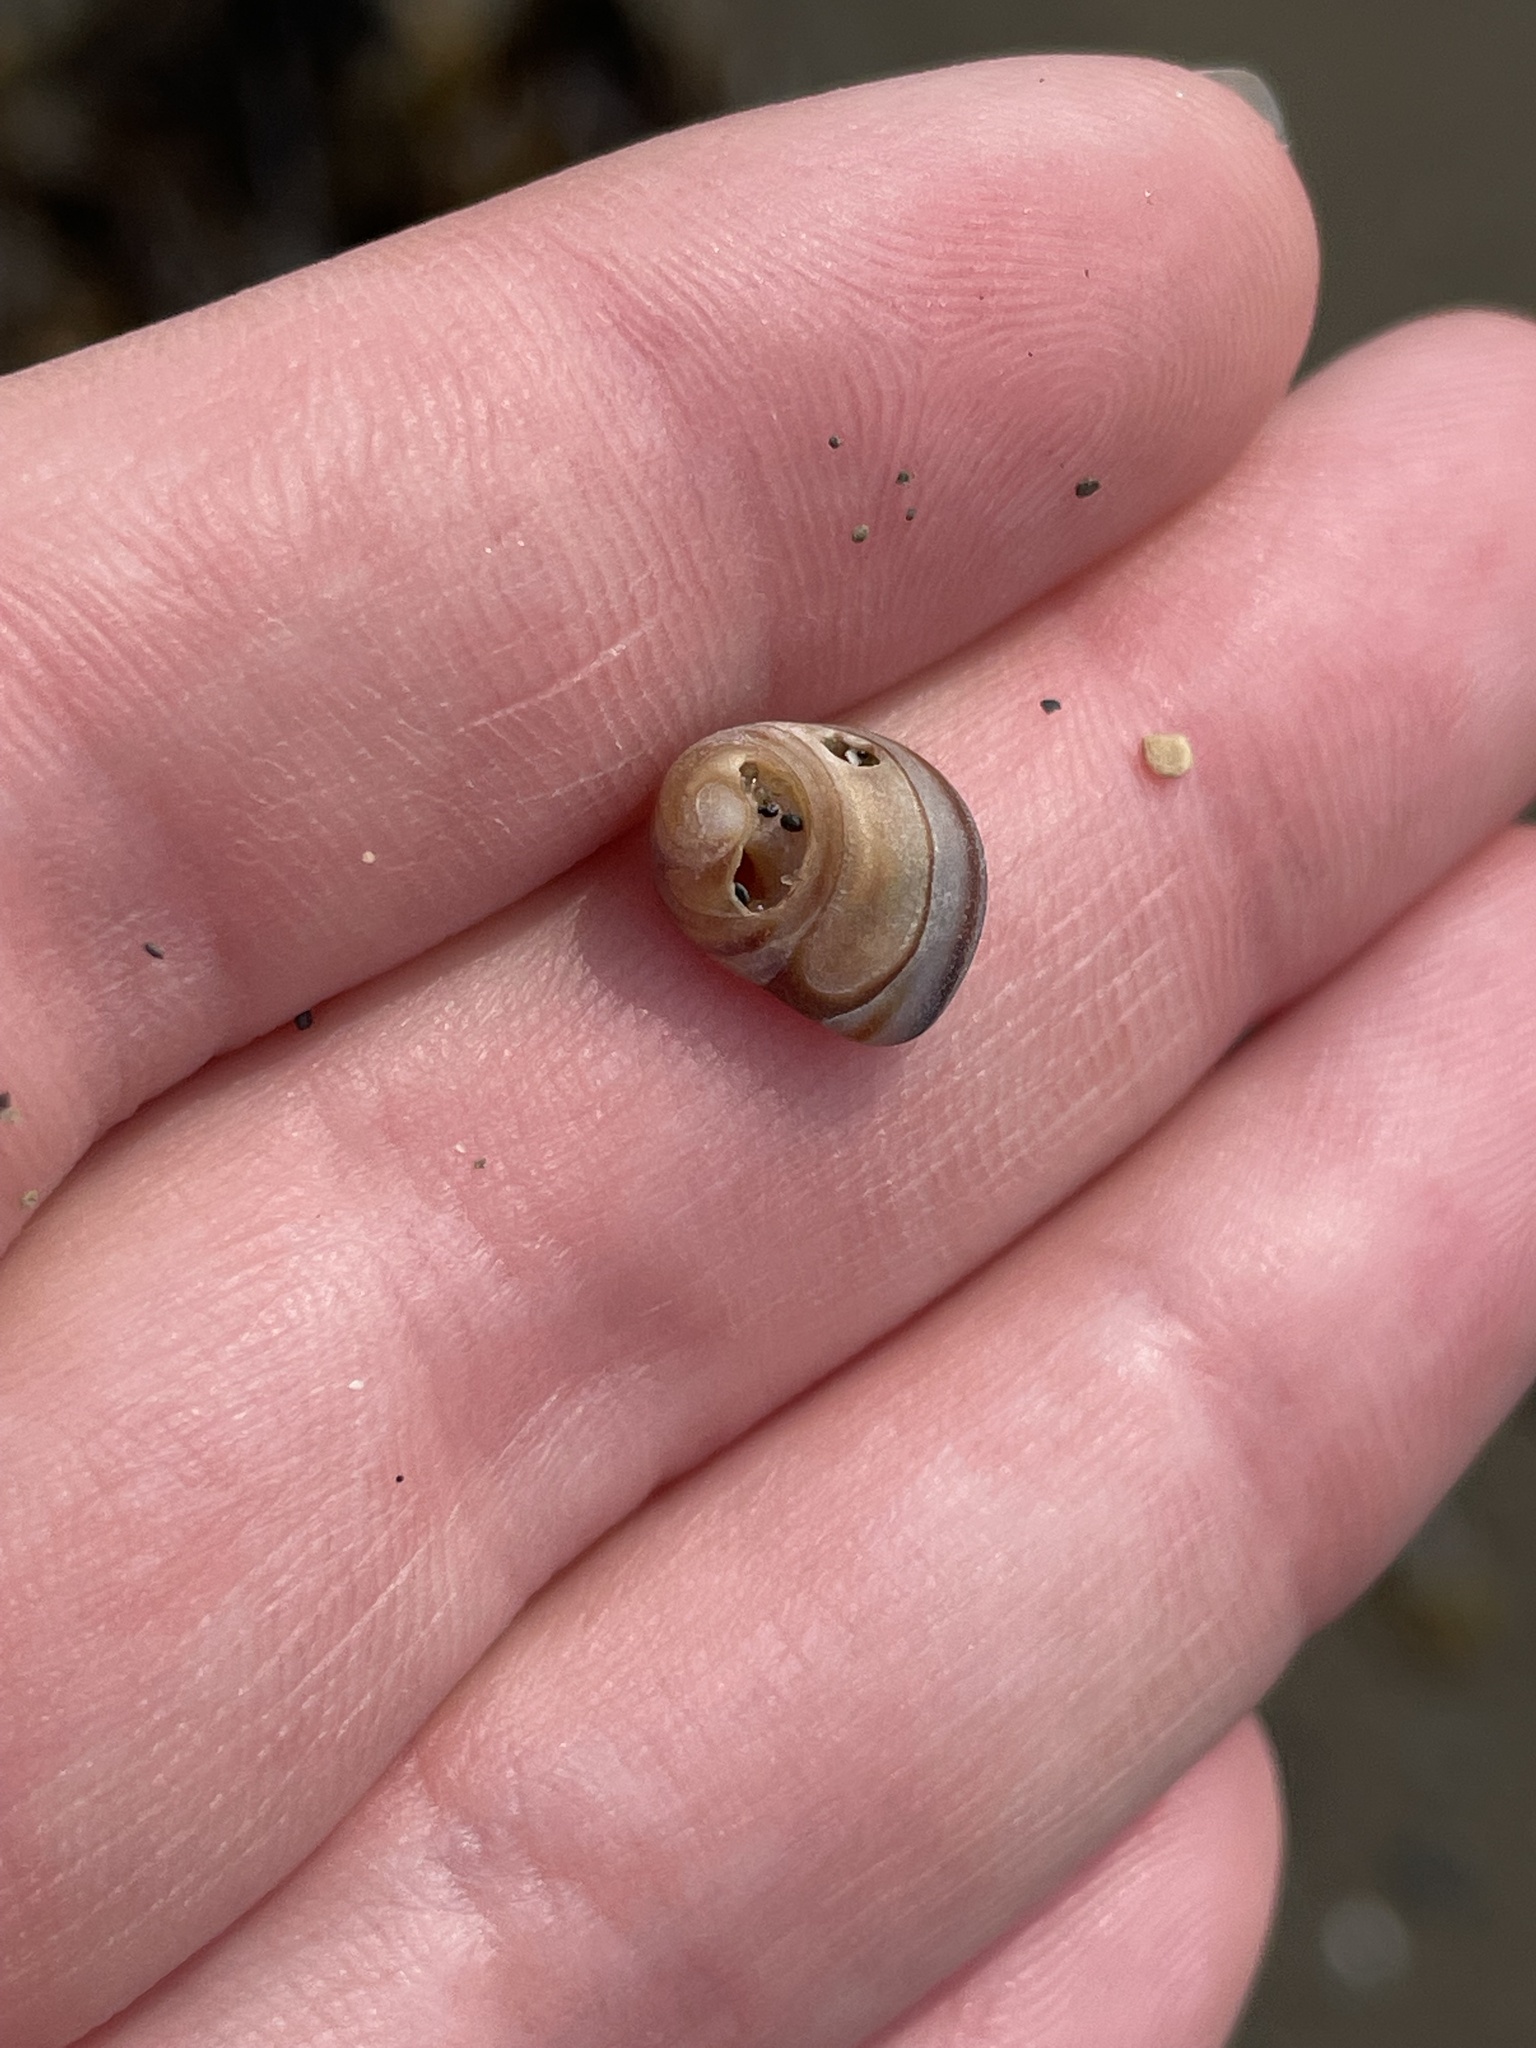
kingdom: Animalia
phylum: Mollusca
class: Gastropoda
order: Littorinimorpha
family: Littorinidae
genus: Littorina
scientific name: Littorina littorea
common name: Common periwinkle
